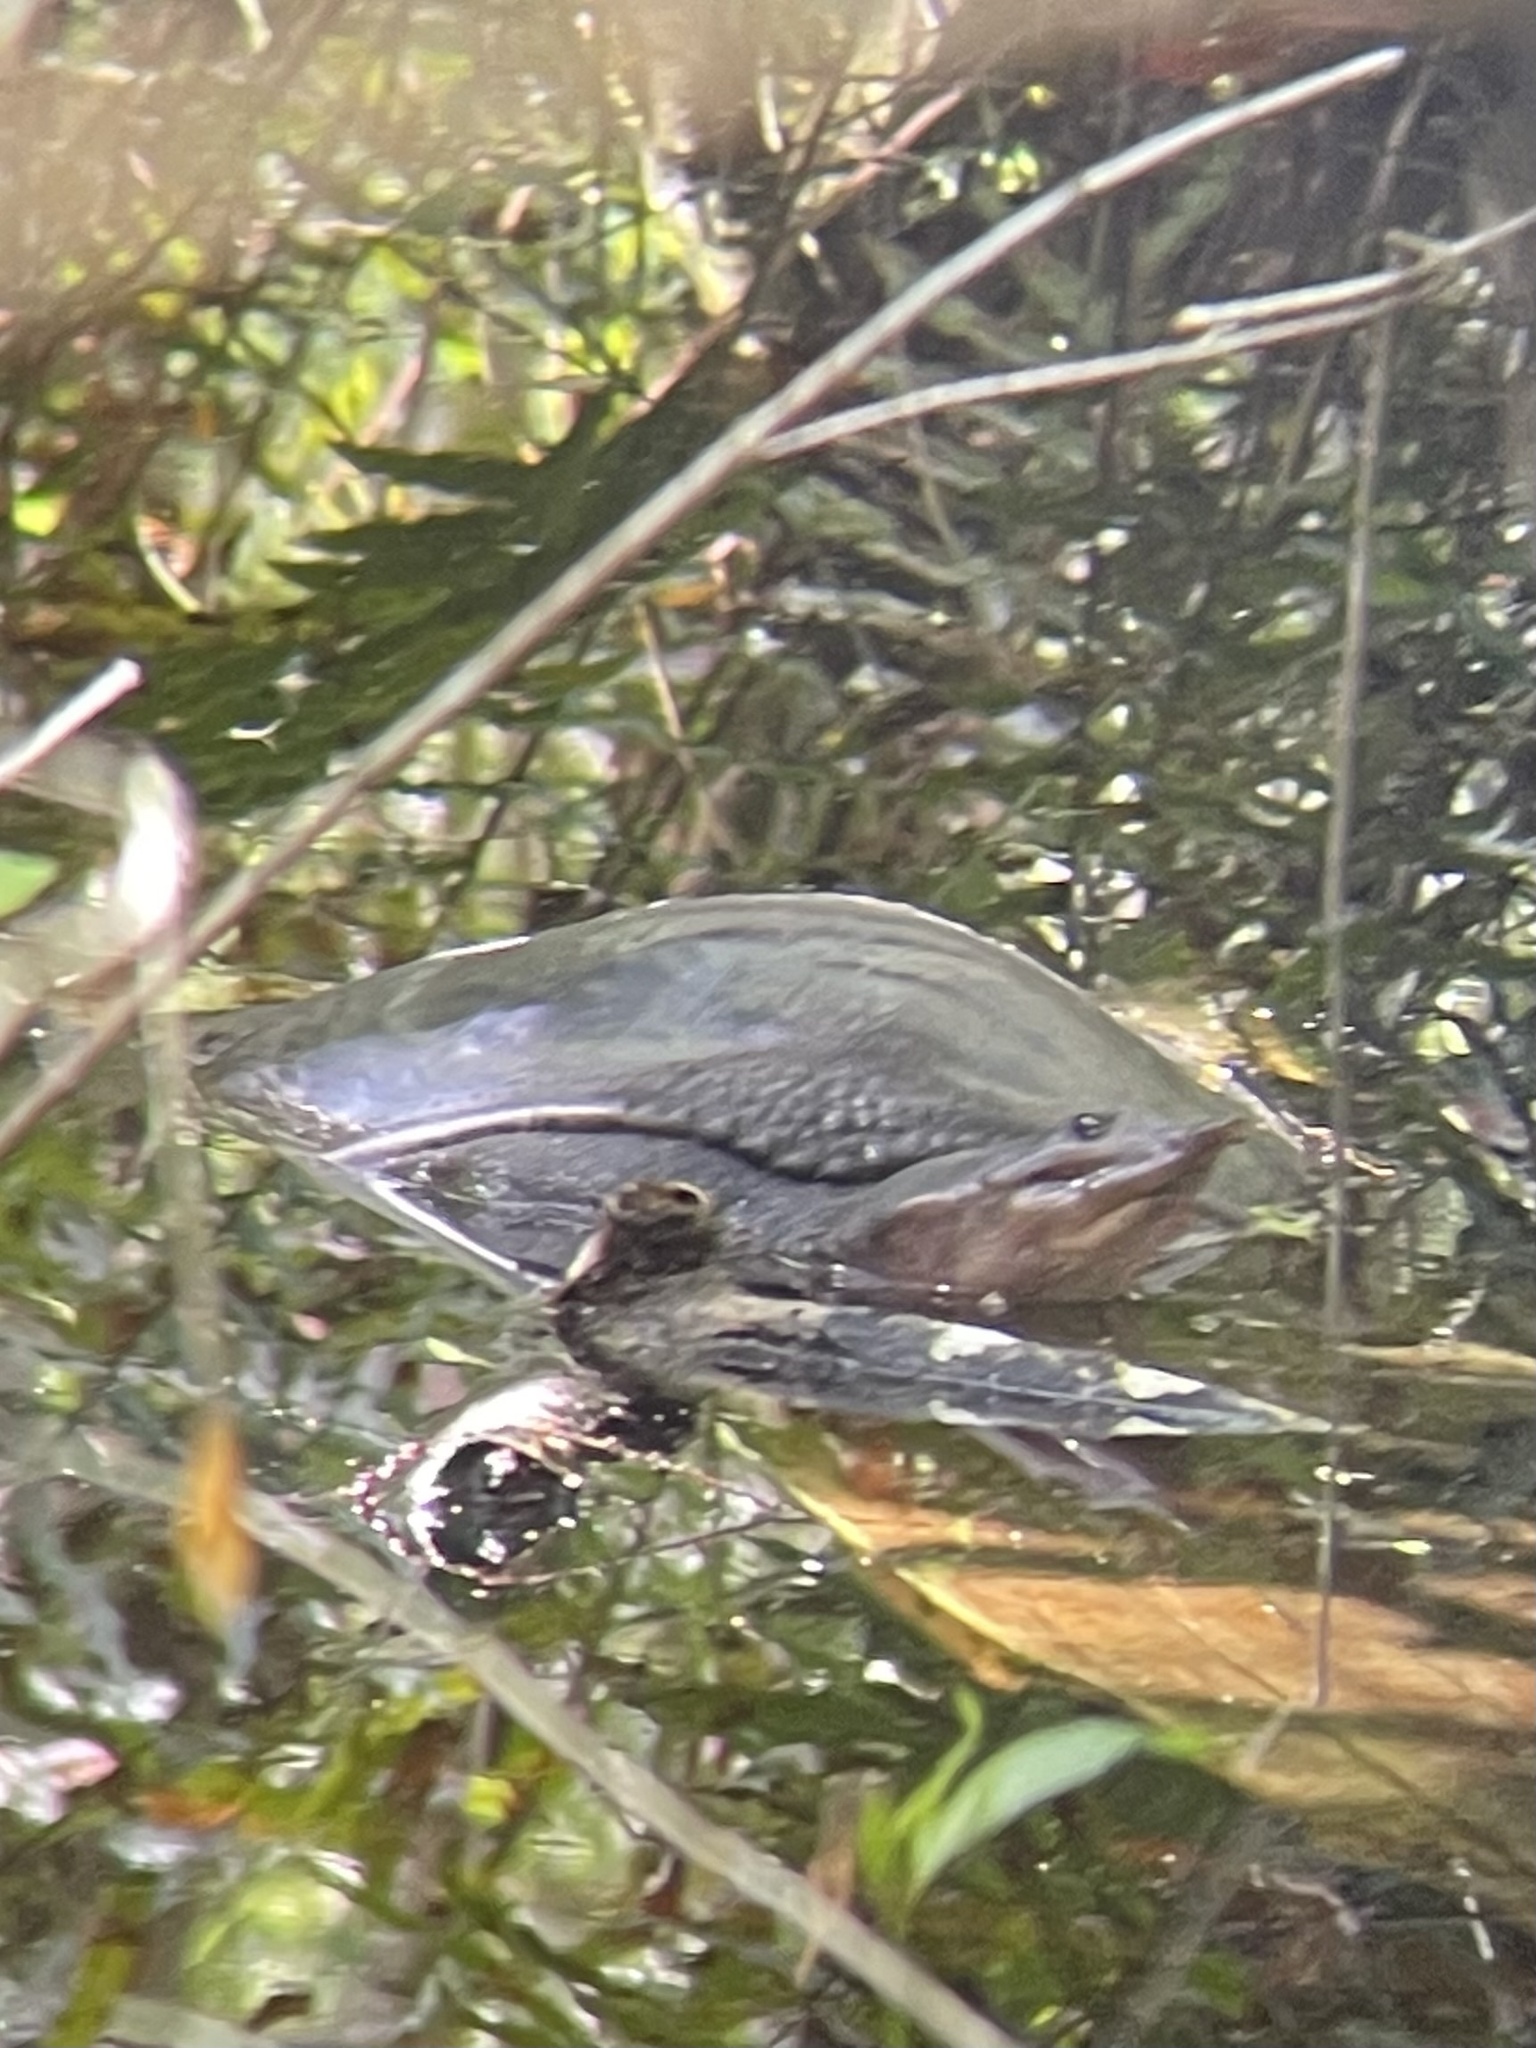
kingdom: Animalia
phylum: Chordata
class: Testudines
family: Trionychidae
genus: Apalone
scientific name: Apalone ferox
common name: Florida softshell turtle
